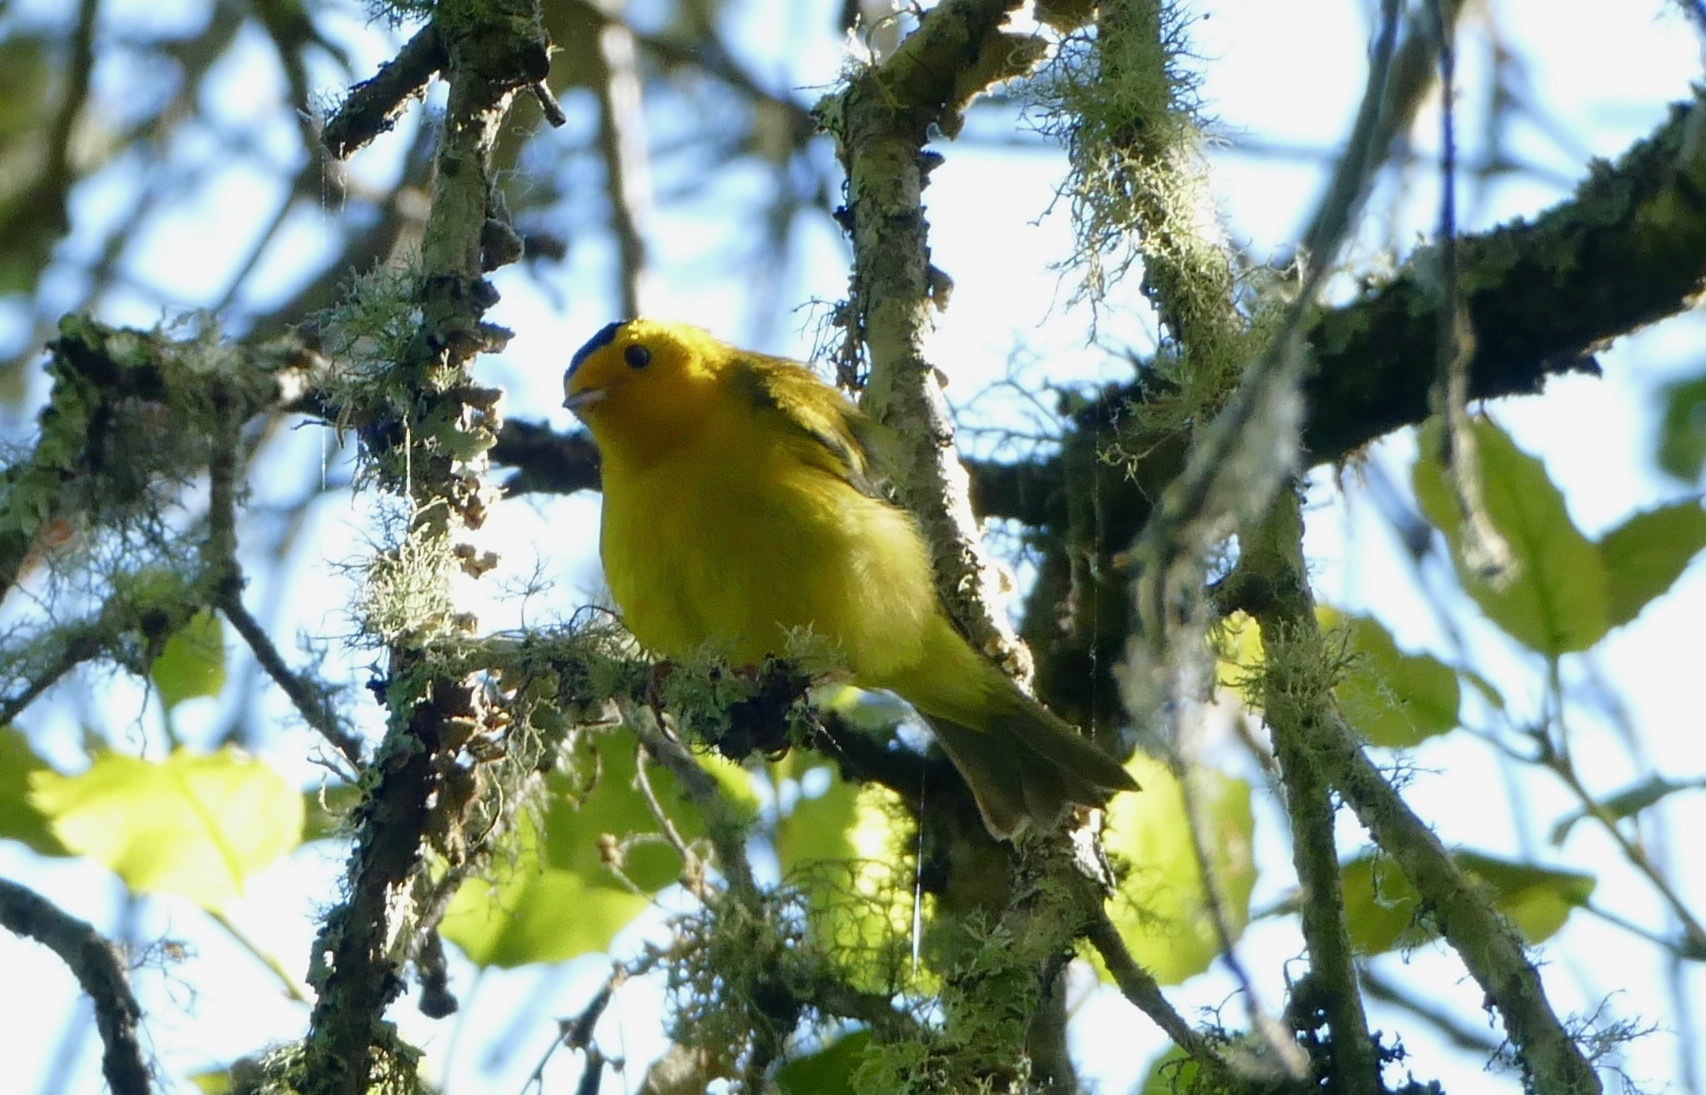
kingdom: Animalia
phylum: Chordata
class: Aves
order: Passeriformes
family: Parulidae
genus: Cardellina
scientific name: Cardellina pusilla
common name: Wilson's warbler
